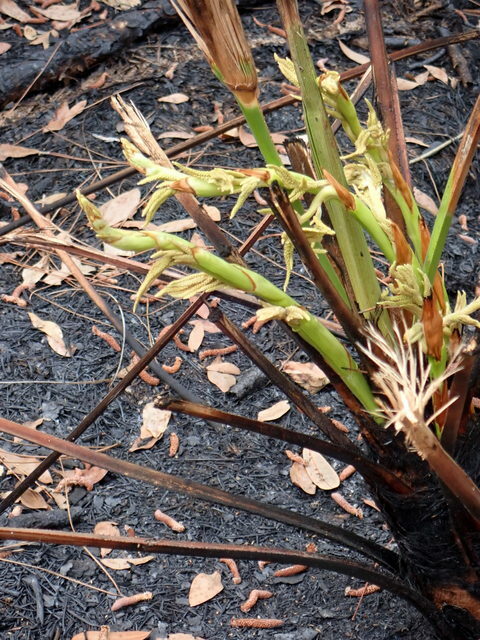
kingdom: Plantae
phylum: Tracheophyta
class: Liliopsida
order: Arecales
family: Arecaceae
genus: Serenoa
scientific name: Serenoa repens
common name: Saw-palmetto
